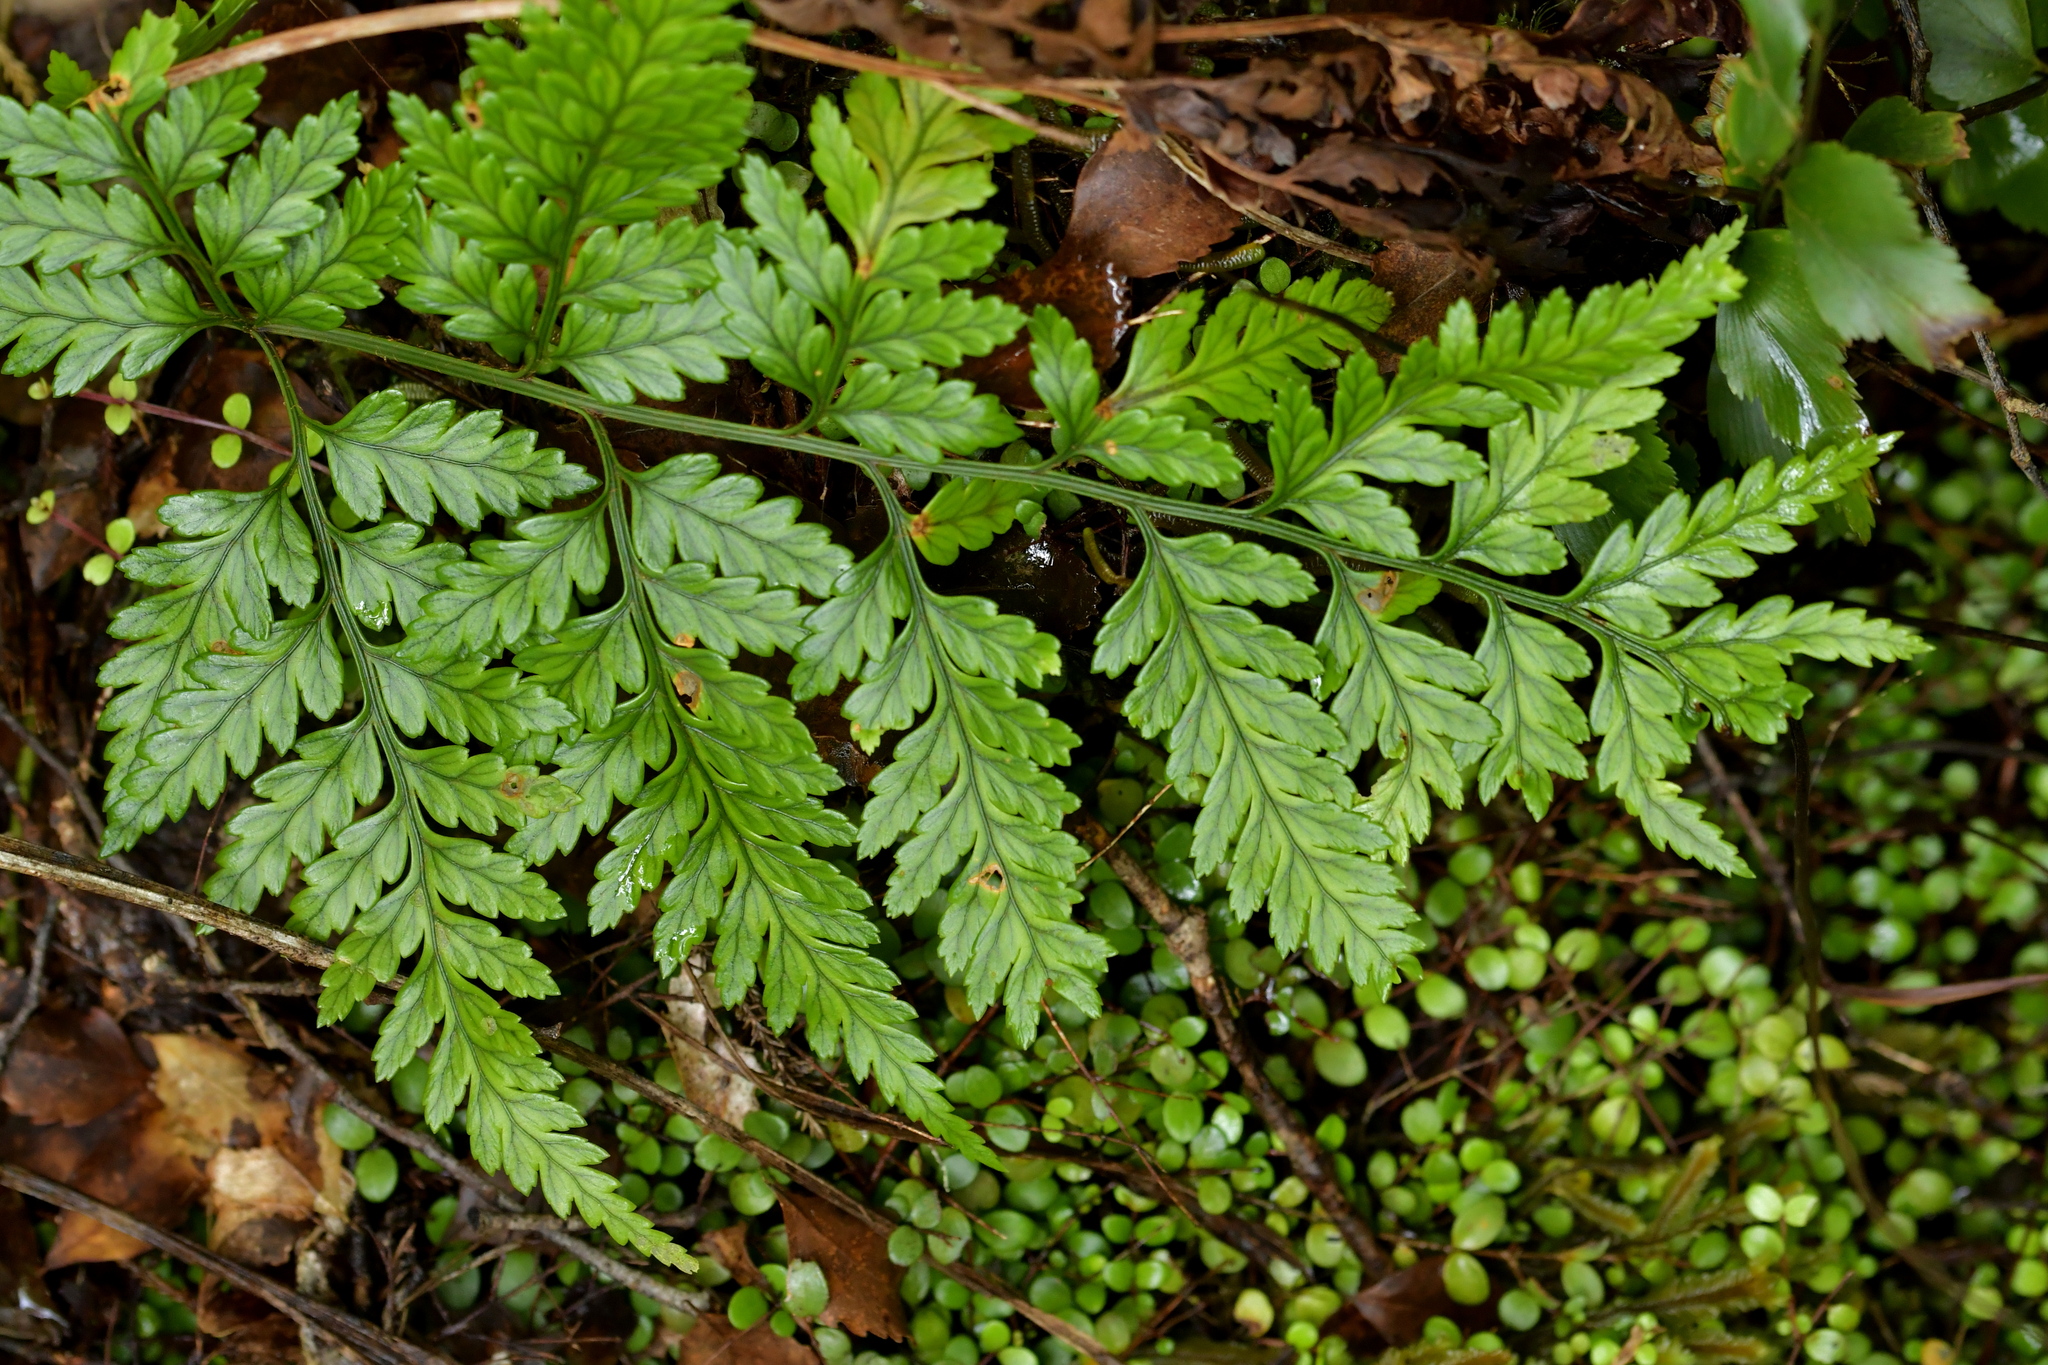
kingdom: Plantae
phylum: Tracheophyta
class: Polypodiopsida
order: Polypodiales
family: Dryopteridaceae
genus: Rumohra
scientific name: Rumohra adiantiformis
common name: Leather fern
